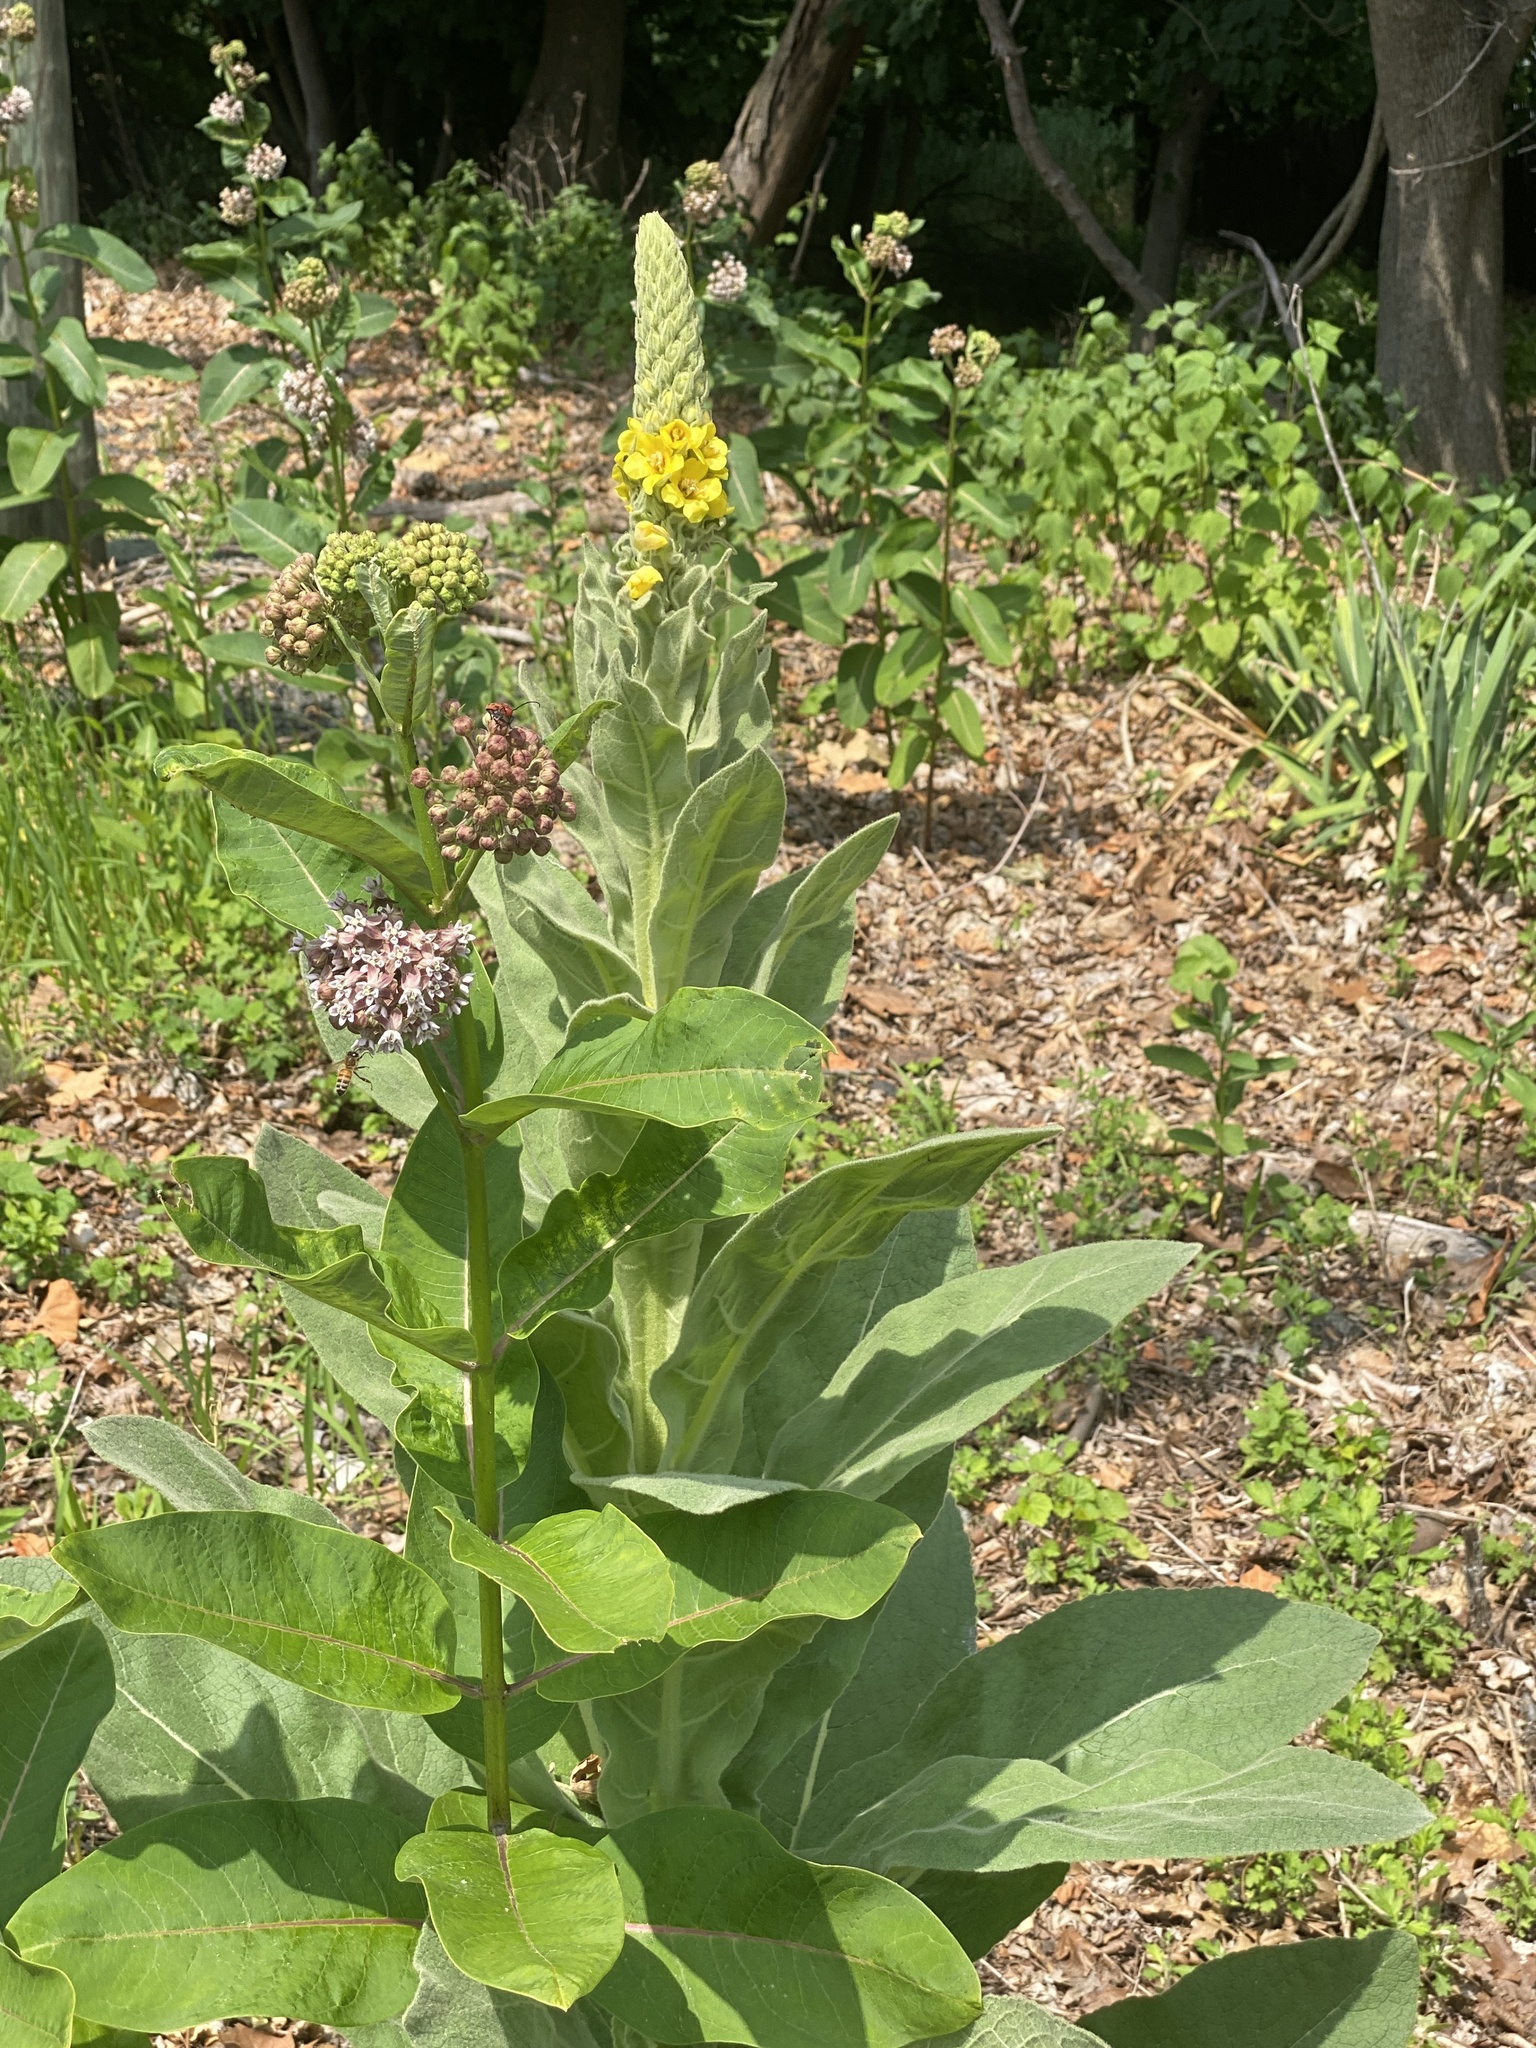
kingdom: Plantae
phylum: Tracheophyta
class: Magnoliopsida
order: Lamiales
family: Scrophulariaceae
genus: Verbascum
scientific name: Verbascum thapsus
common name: Common mullein
